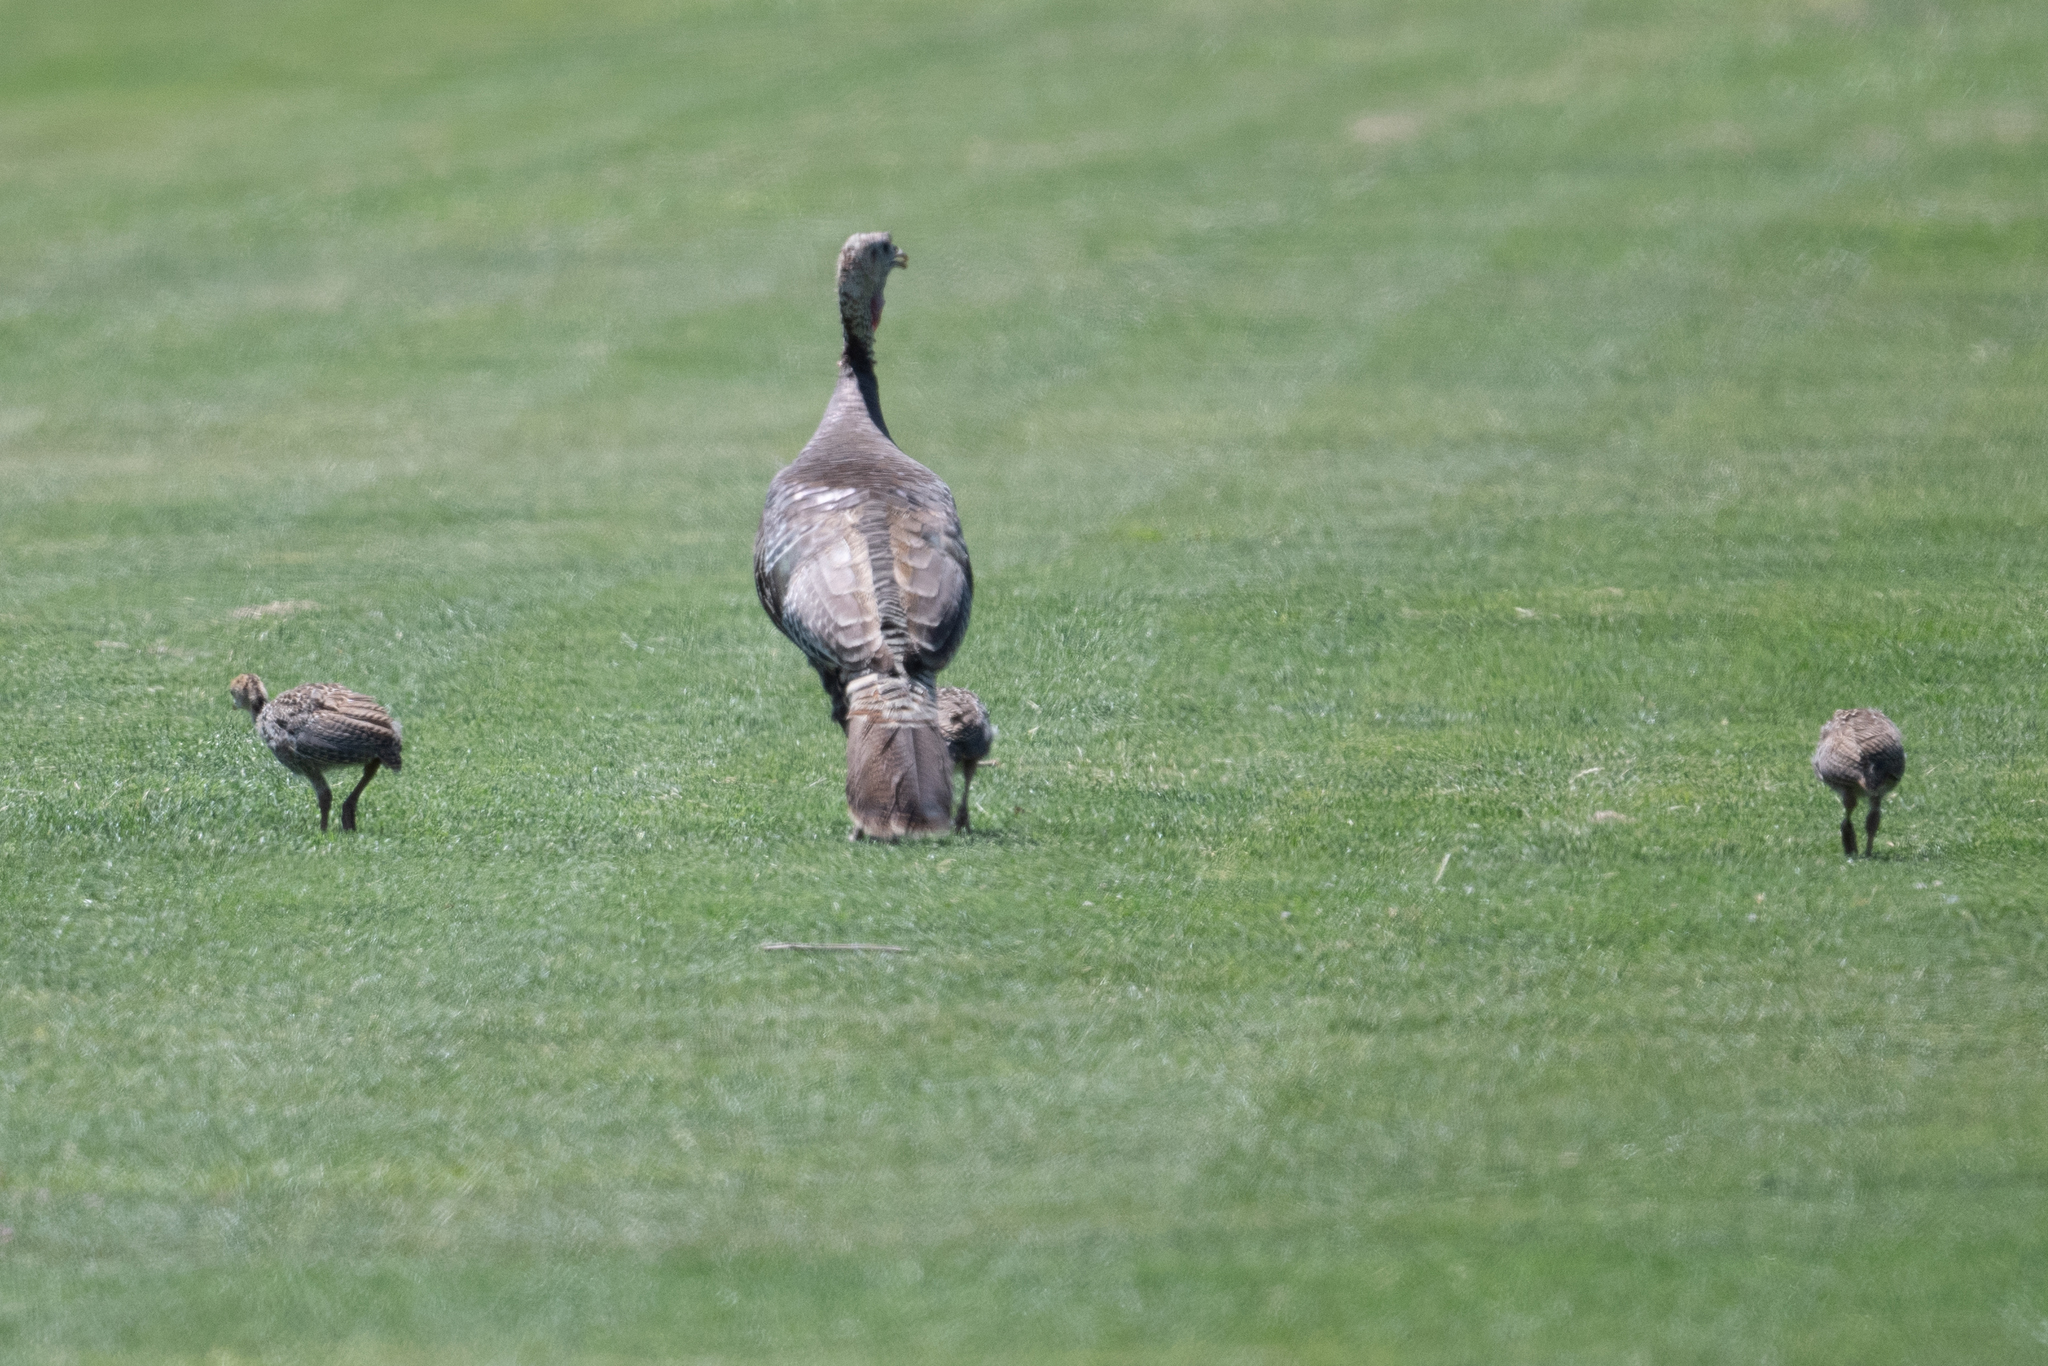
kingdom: Animalia
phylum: Chordata
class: Aves
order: Galliformes
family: Phasianidae
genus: Meleagris
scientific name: Meleagris gallopavo
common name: Wild turkey
